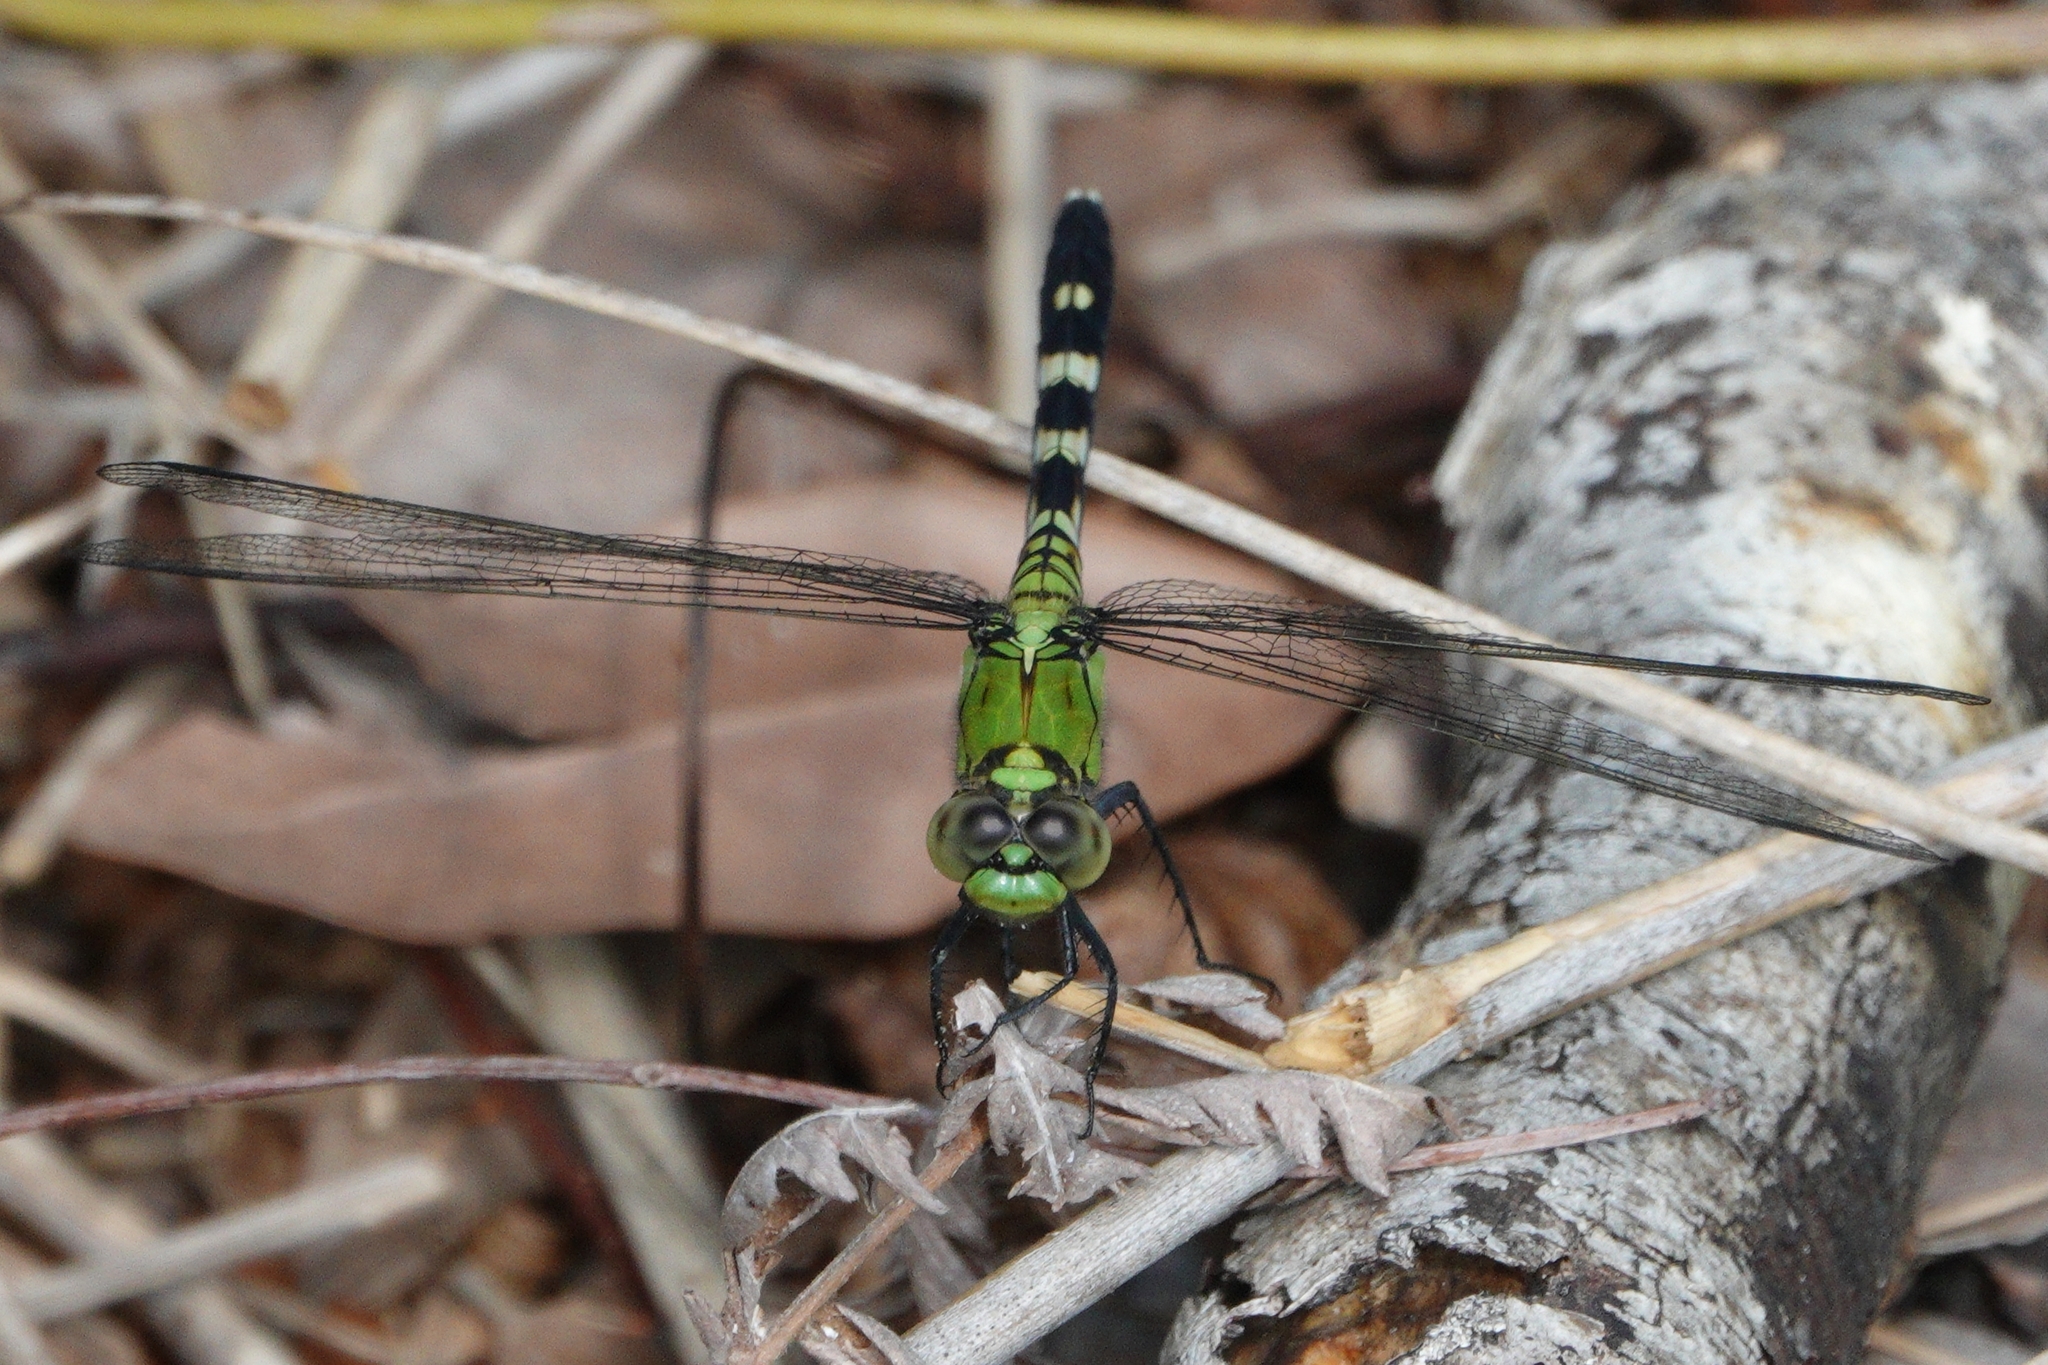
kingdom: Animalia
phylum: Arthropoda
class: Insecta
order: Odonata
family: Libellulidae
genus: Erythemis
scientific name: Erythemis simplicicollis
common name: Eastern pondhawk
